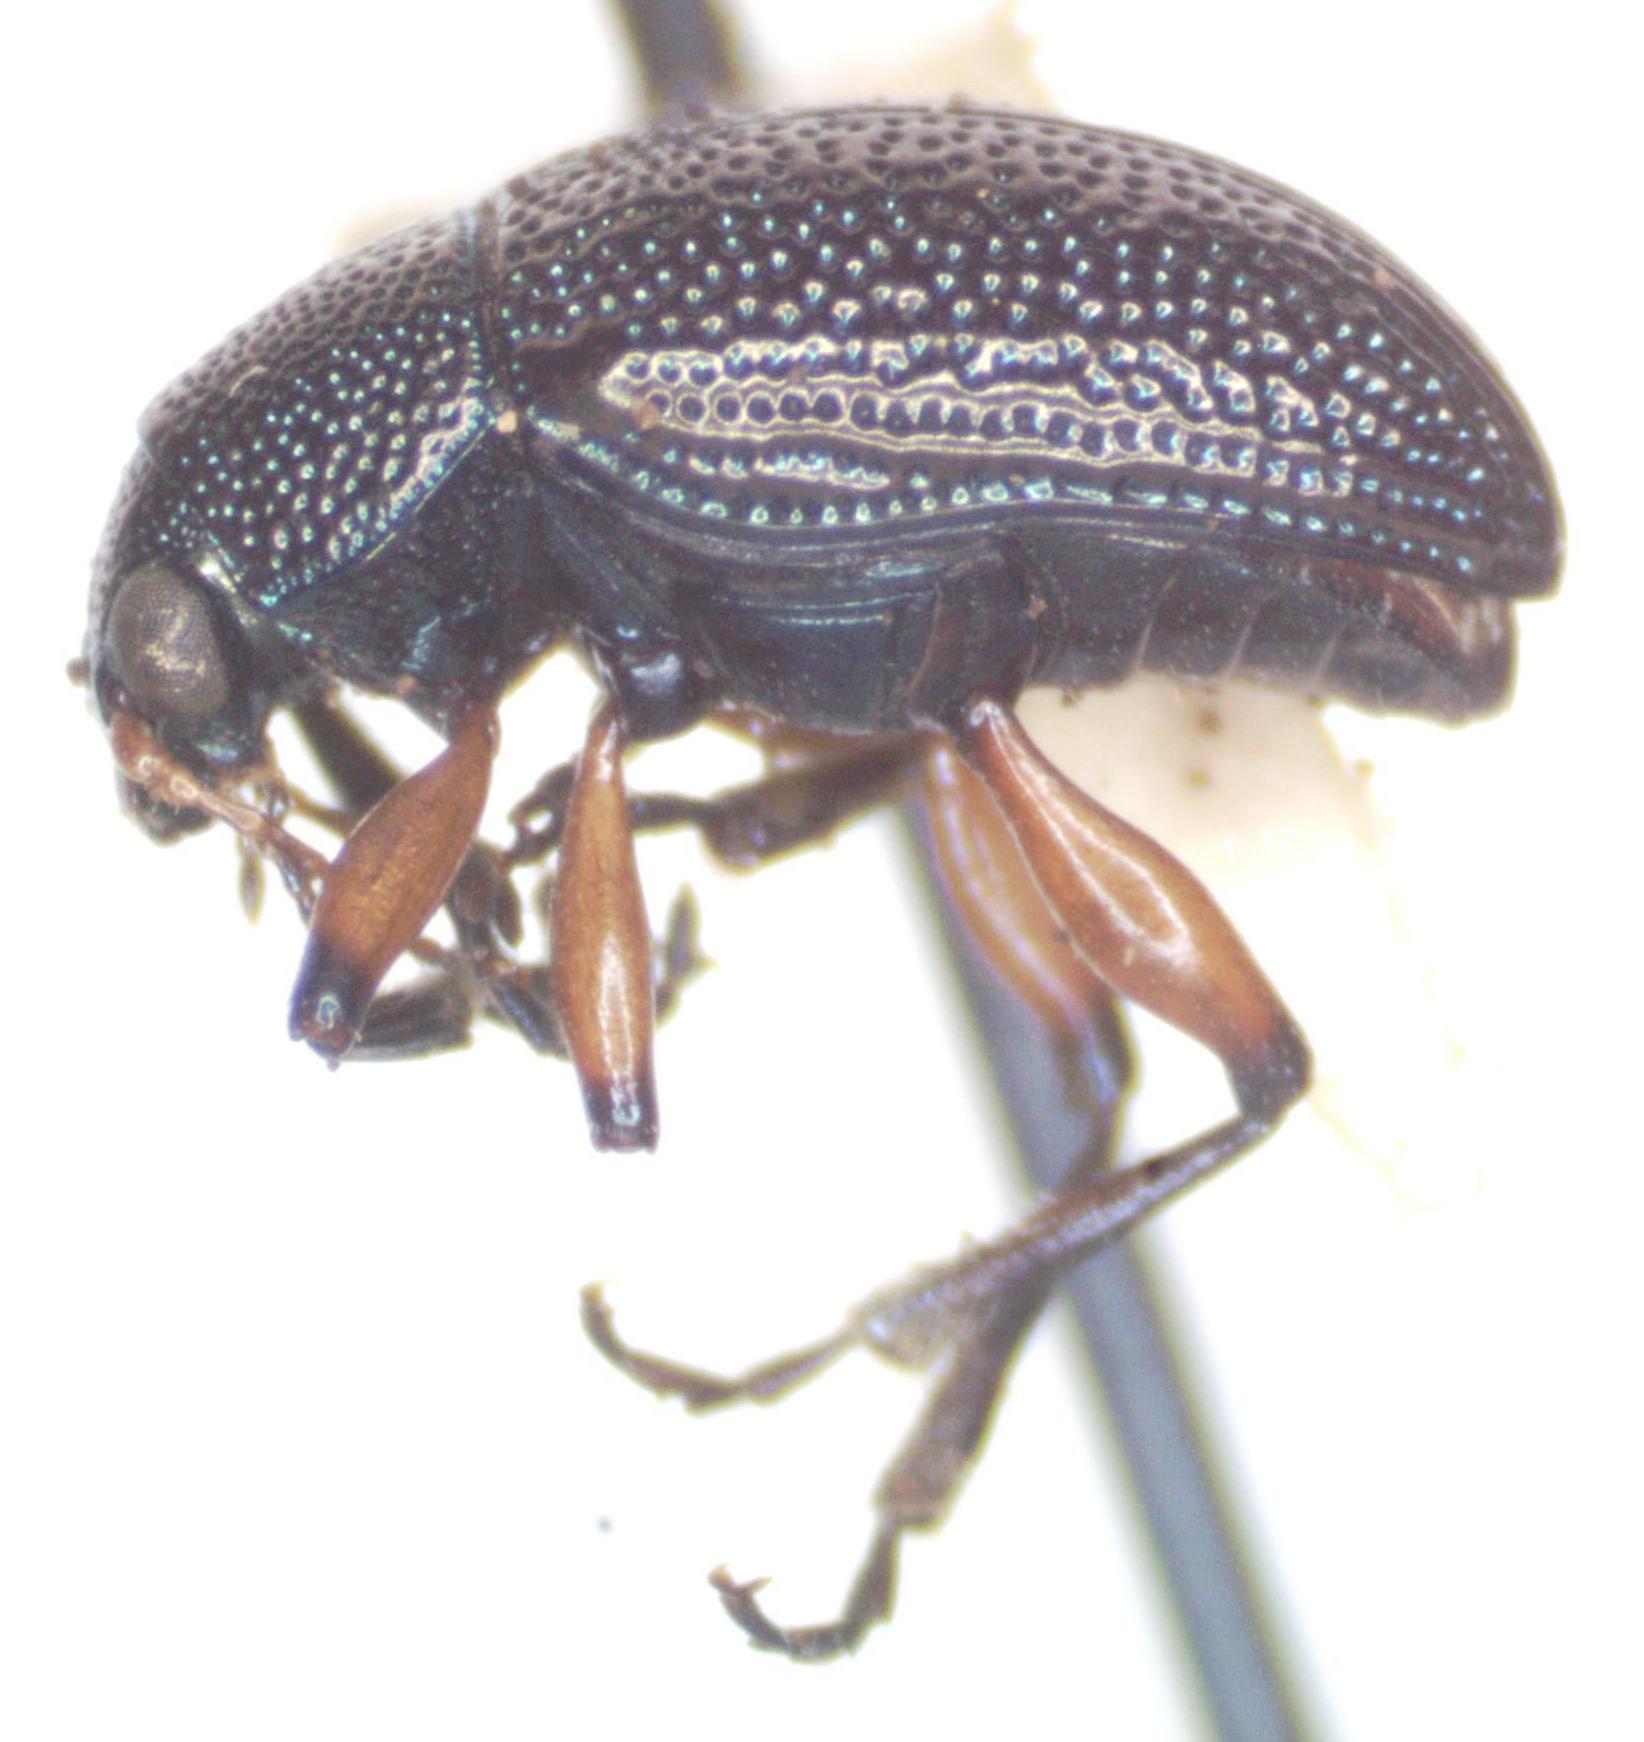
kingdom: Animalia
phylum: Arthropoda
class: Insecta
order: Coleoptera
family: Chrysomelidae
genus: Nodocolaspis
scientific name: Nodocolaspis
